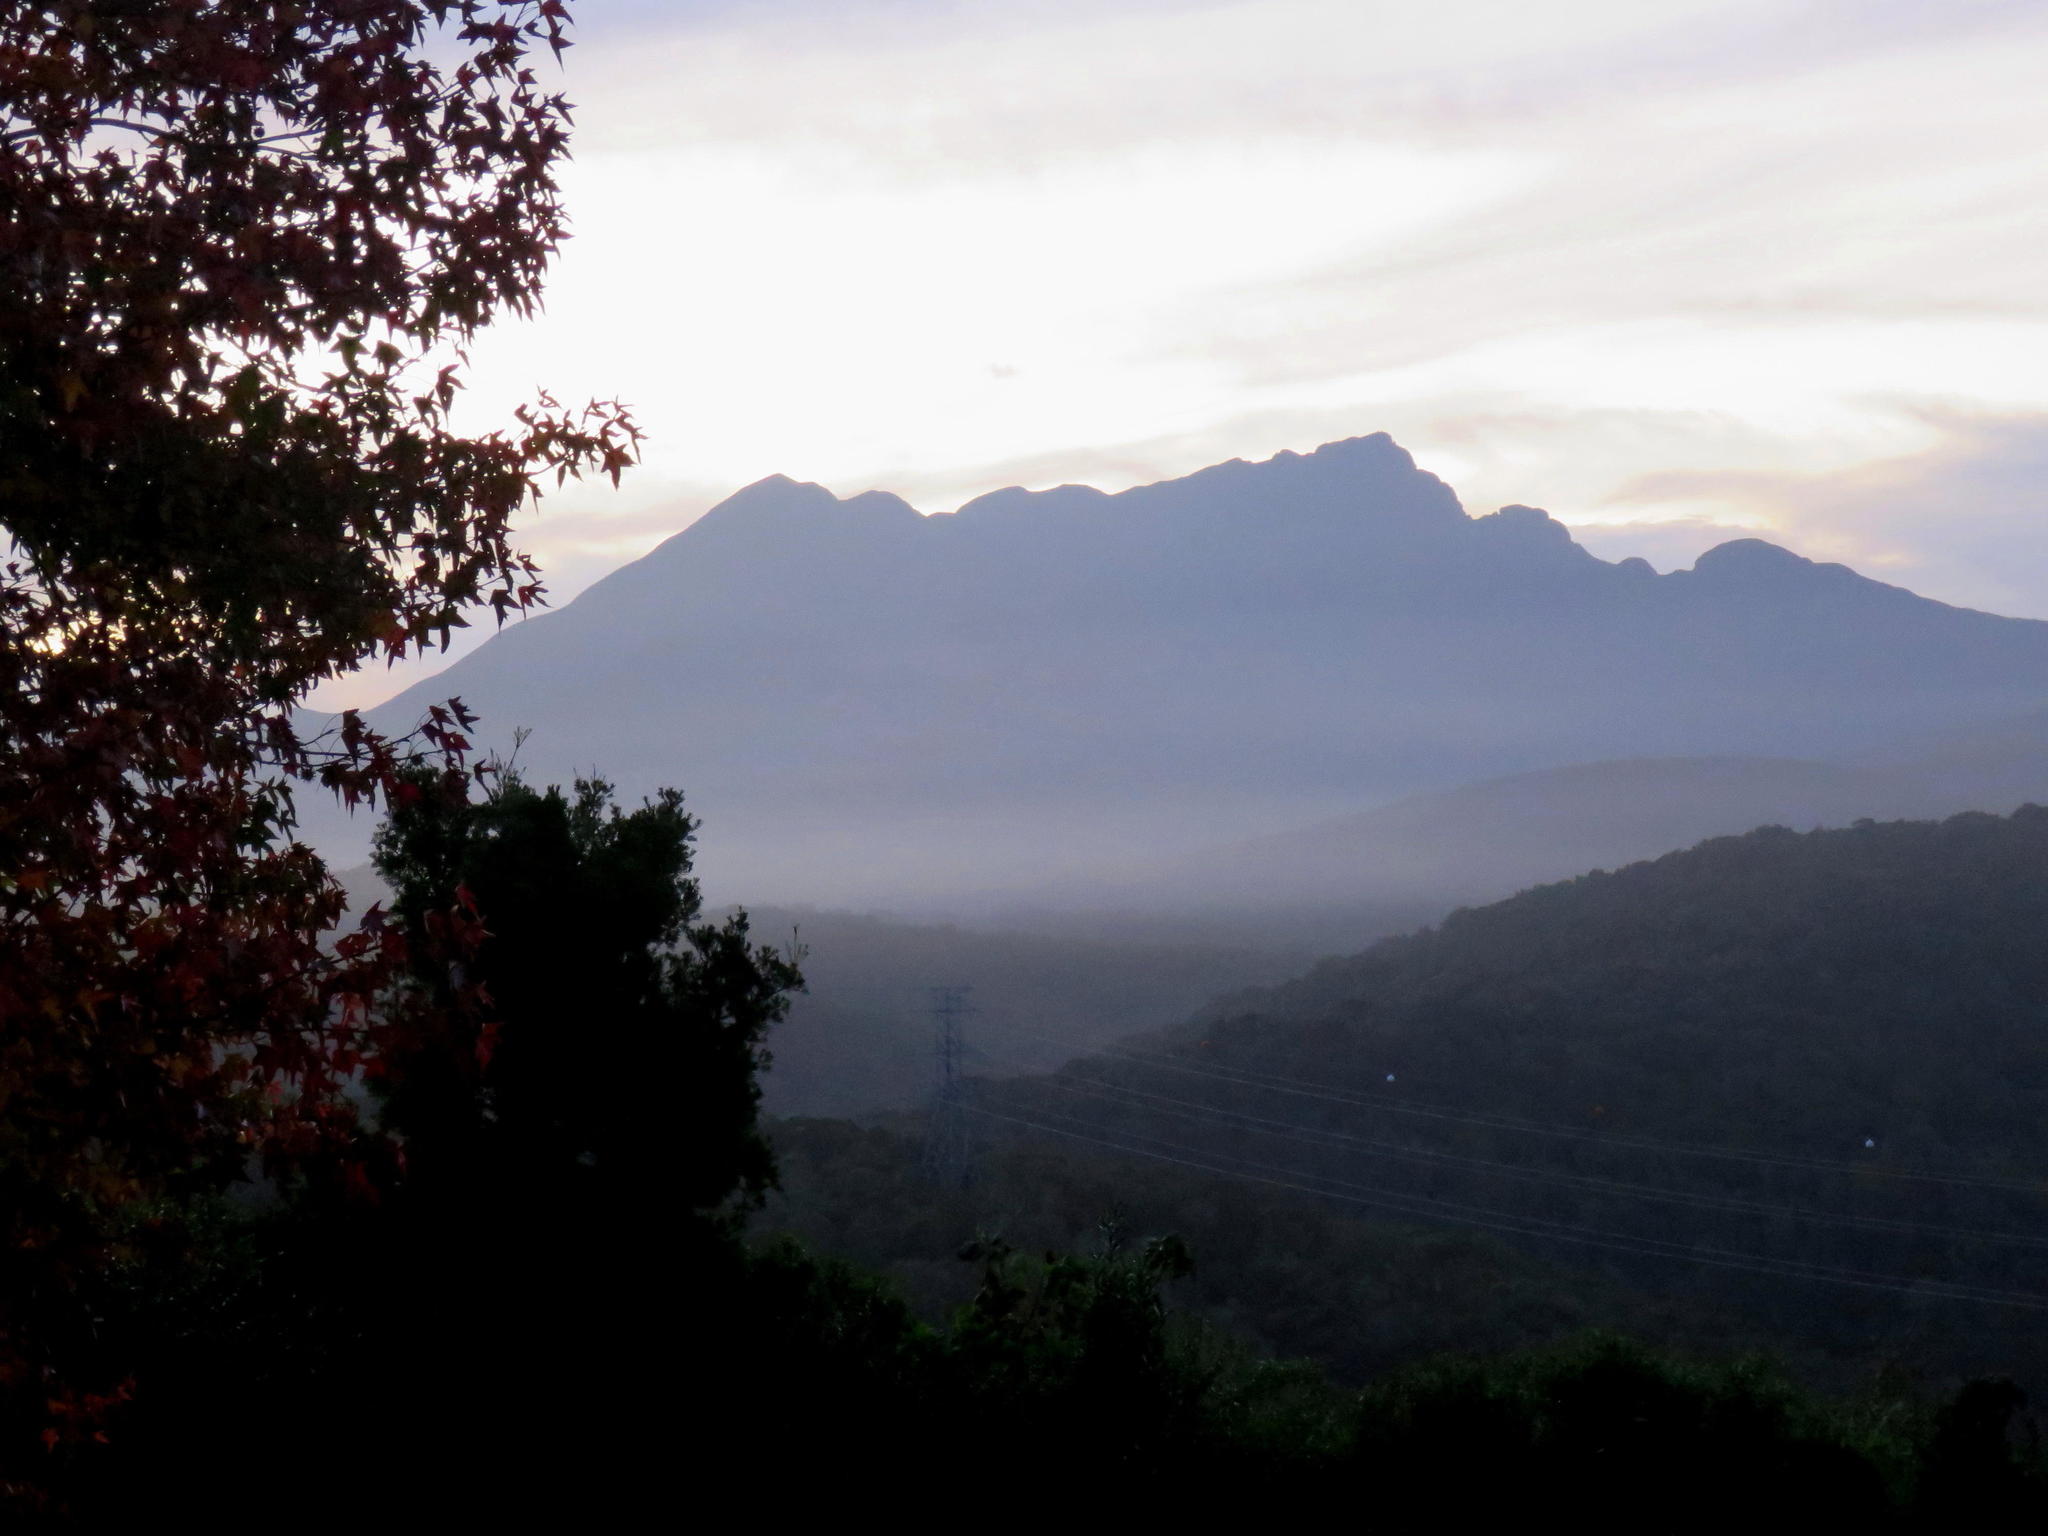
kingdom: Plantae
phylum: Tracheophyta
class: Magnoliopsida
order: Saxifragales
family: Altingiaceae
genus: Liquidambar
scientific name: Liquidambar styraciflua
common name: Sweet gum
